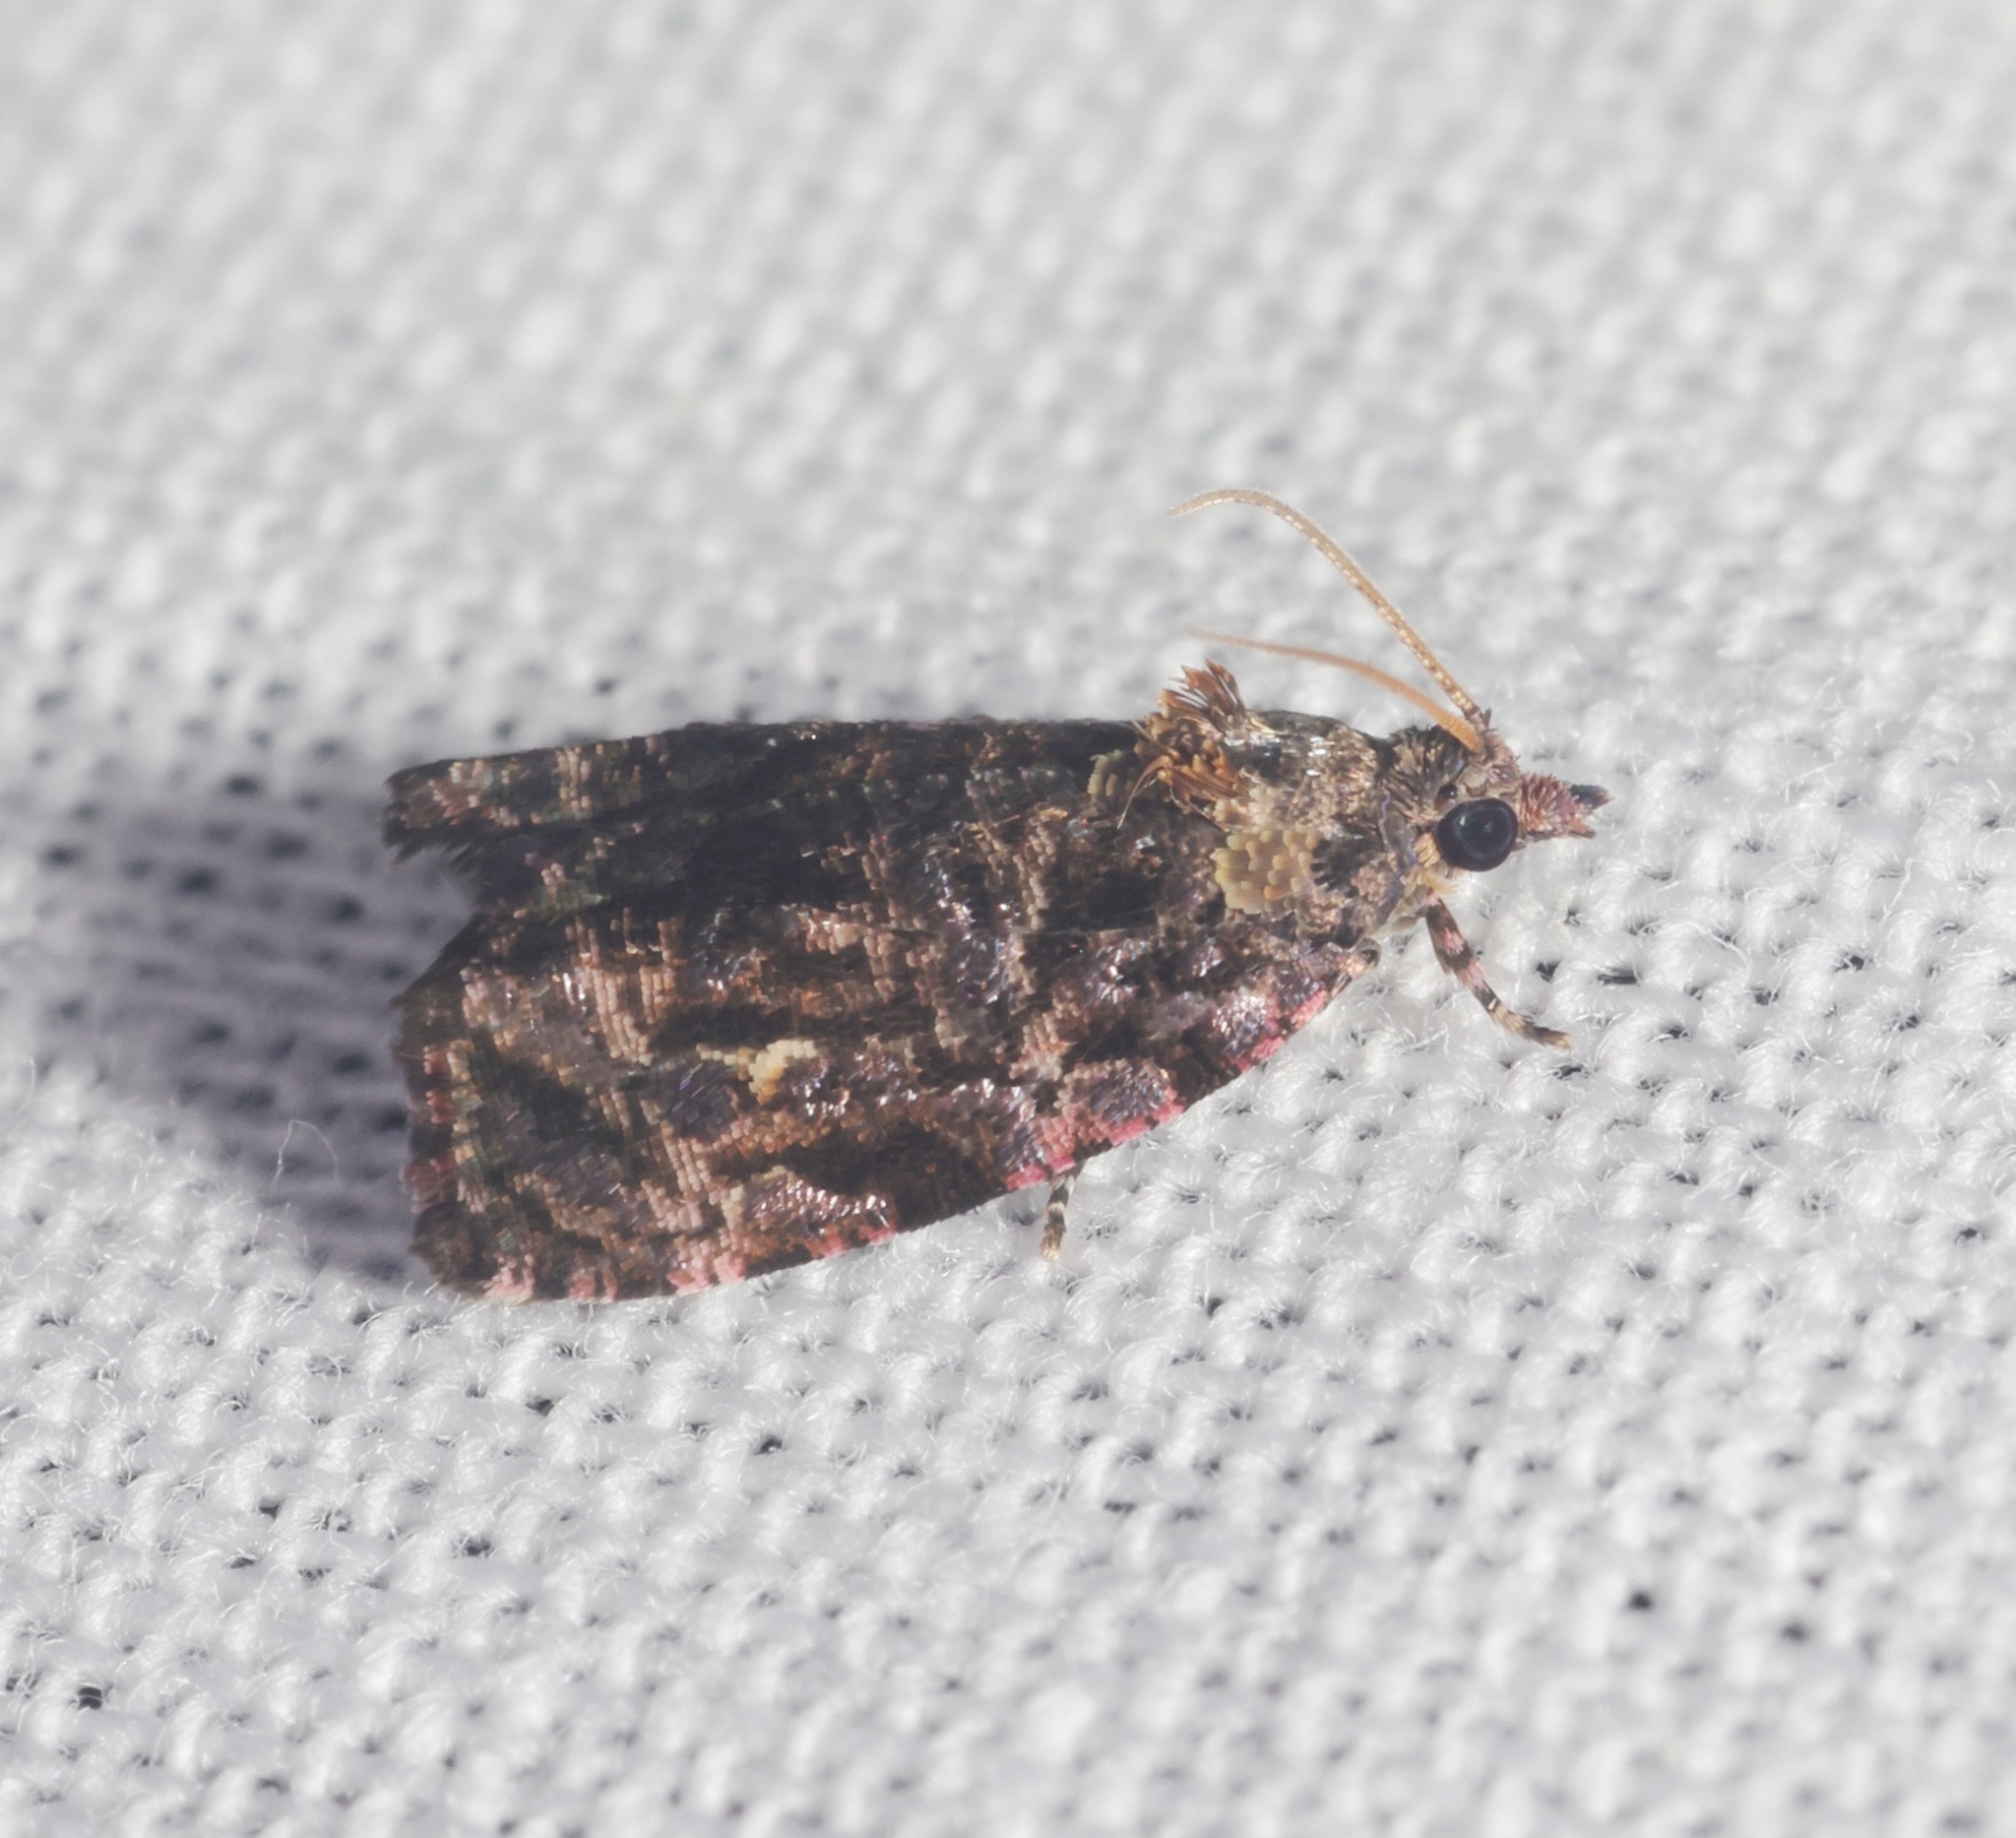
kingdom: Animalia
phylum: Arthropoda
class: Insecta
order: Lepidoptera
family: Tortricidae
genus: Gatesclarkeana
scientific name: Gatesclarkeana idia
